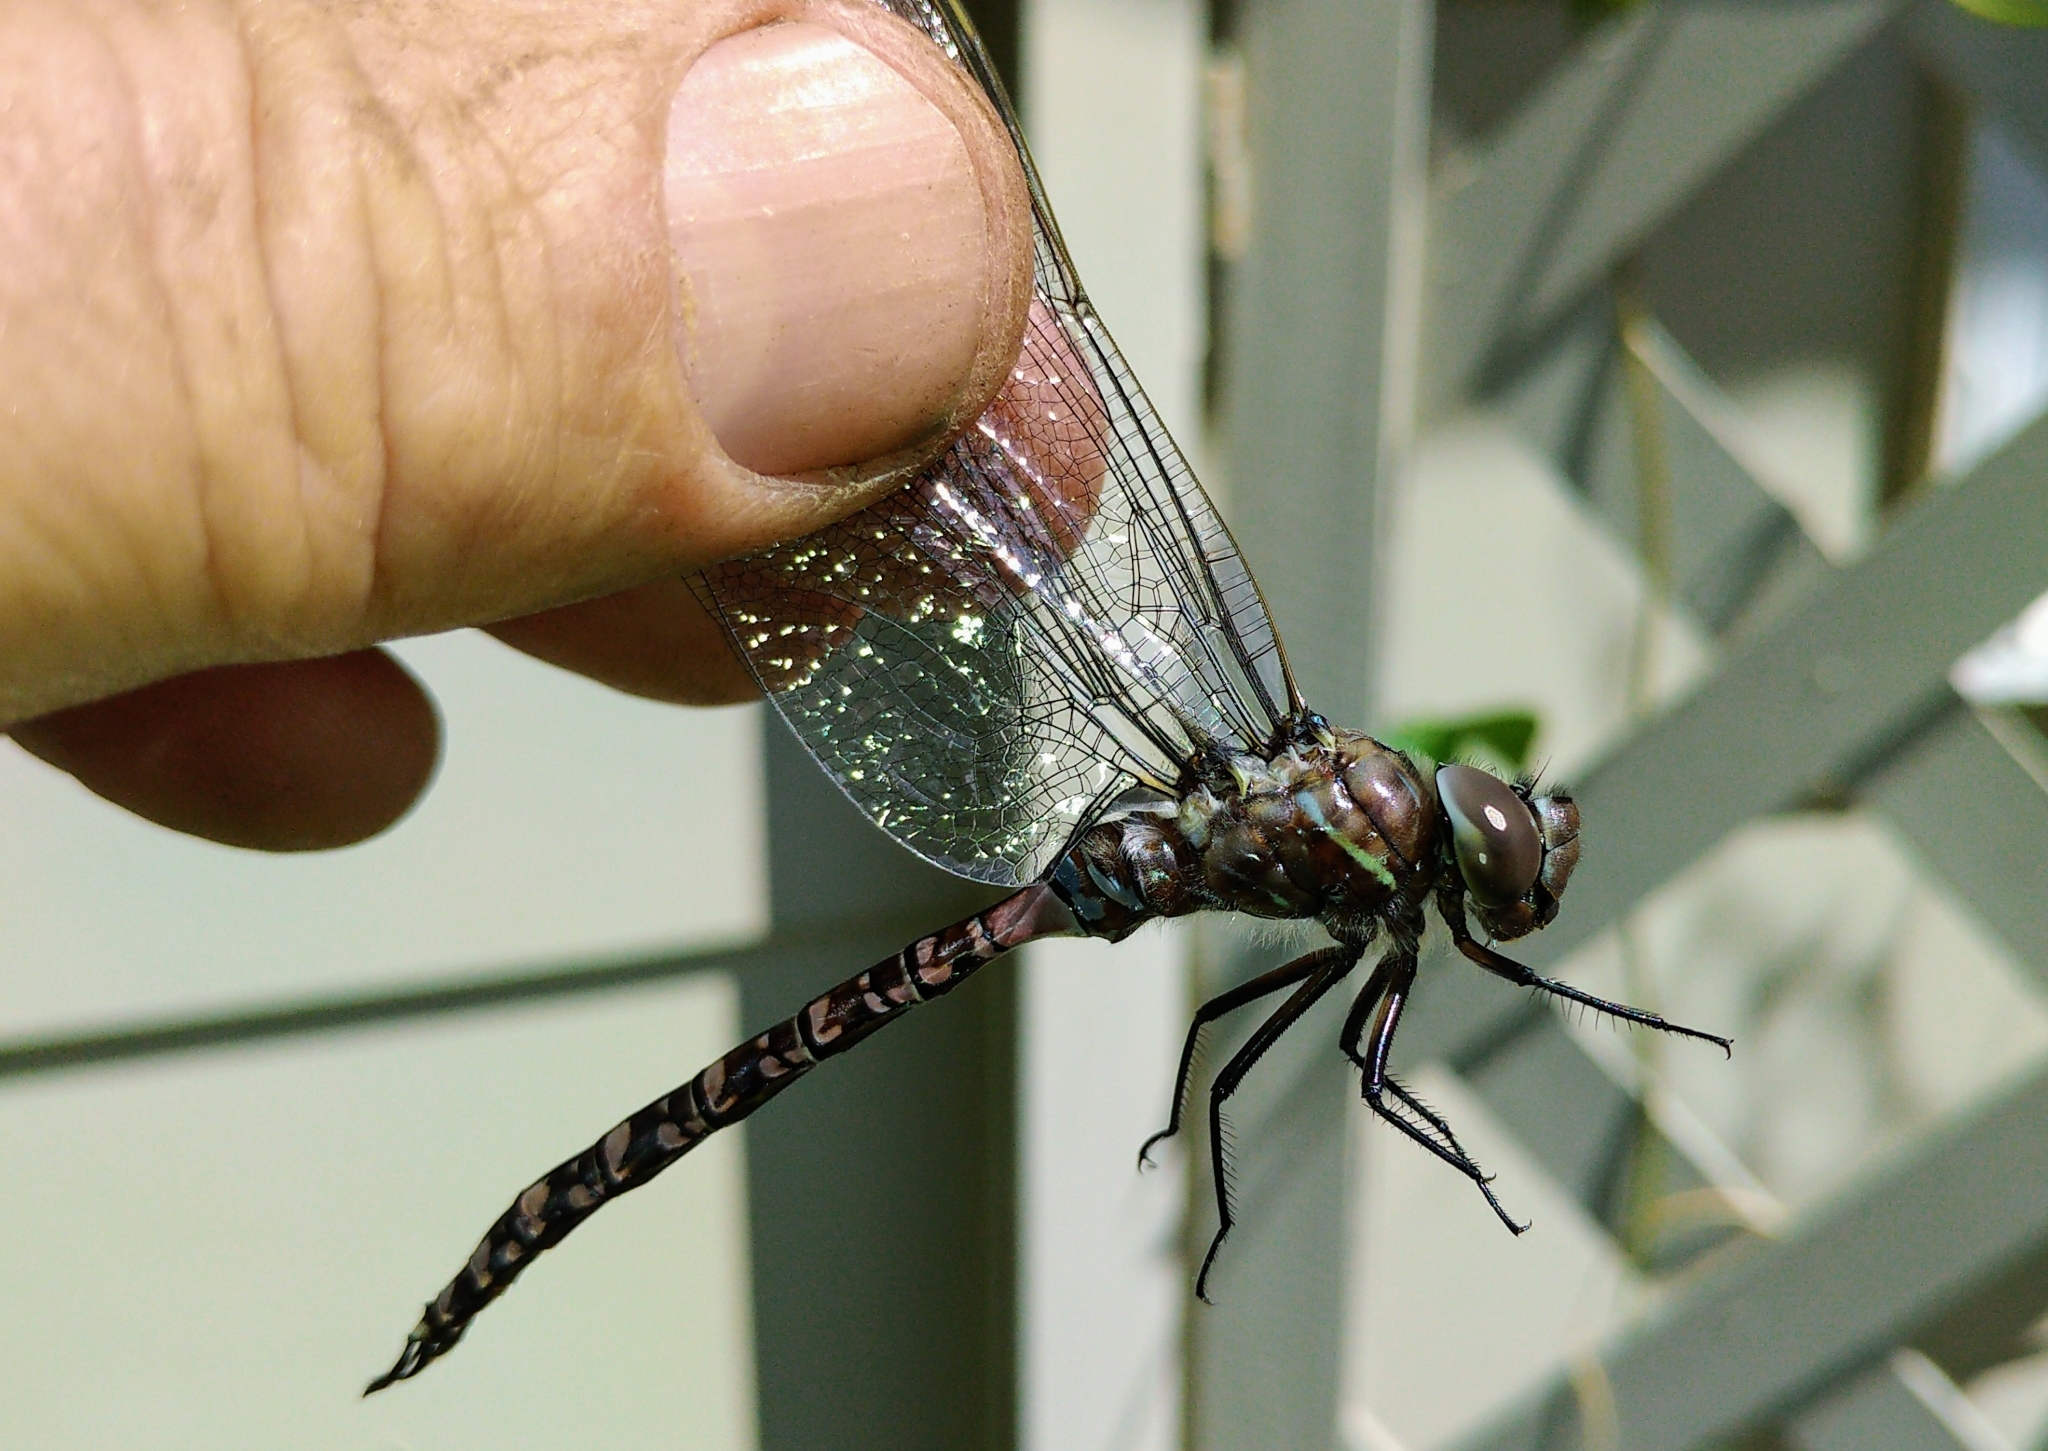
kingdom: Animalia
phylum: Arthropoda
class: Insecta
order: Odonata
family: Aeshnidae
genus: Aeshna
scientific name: Aeshna interrupta
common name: Variable darner
